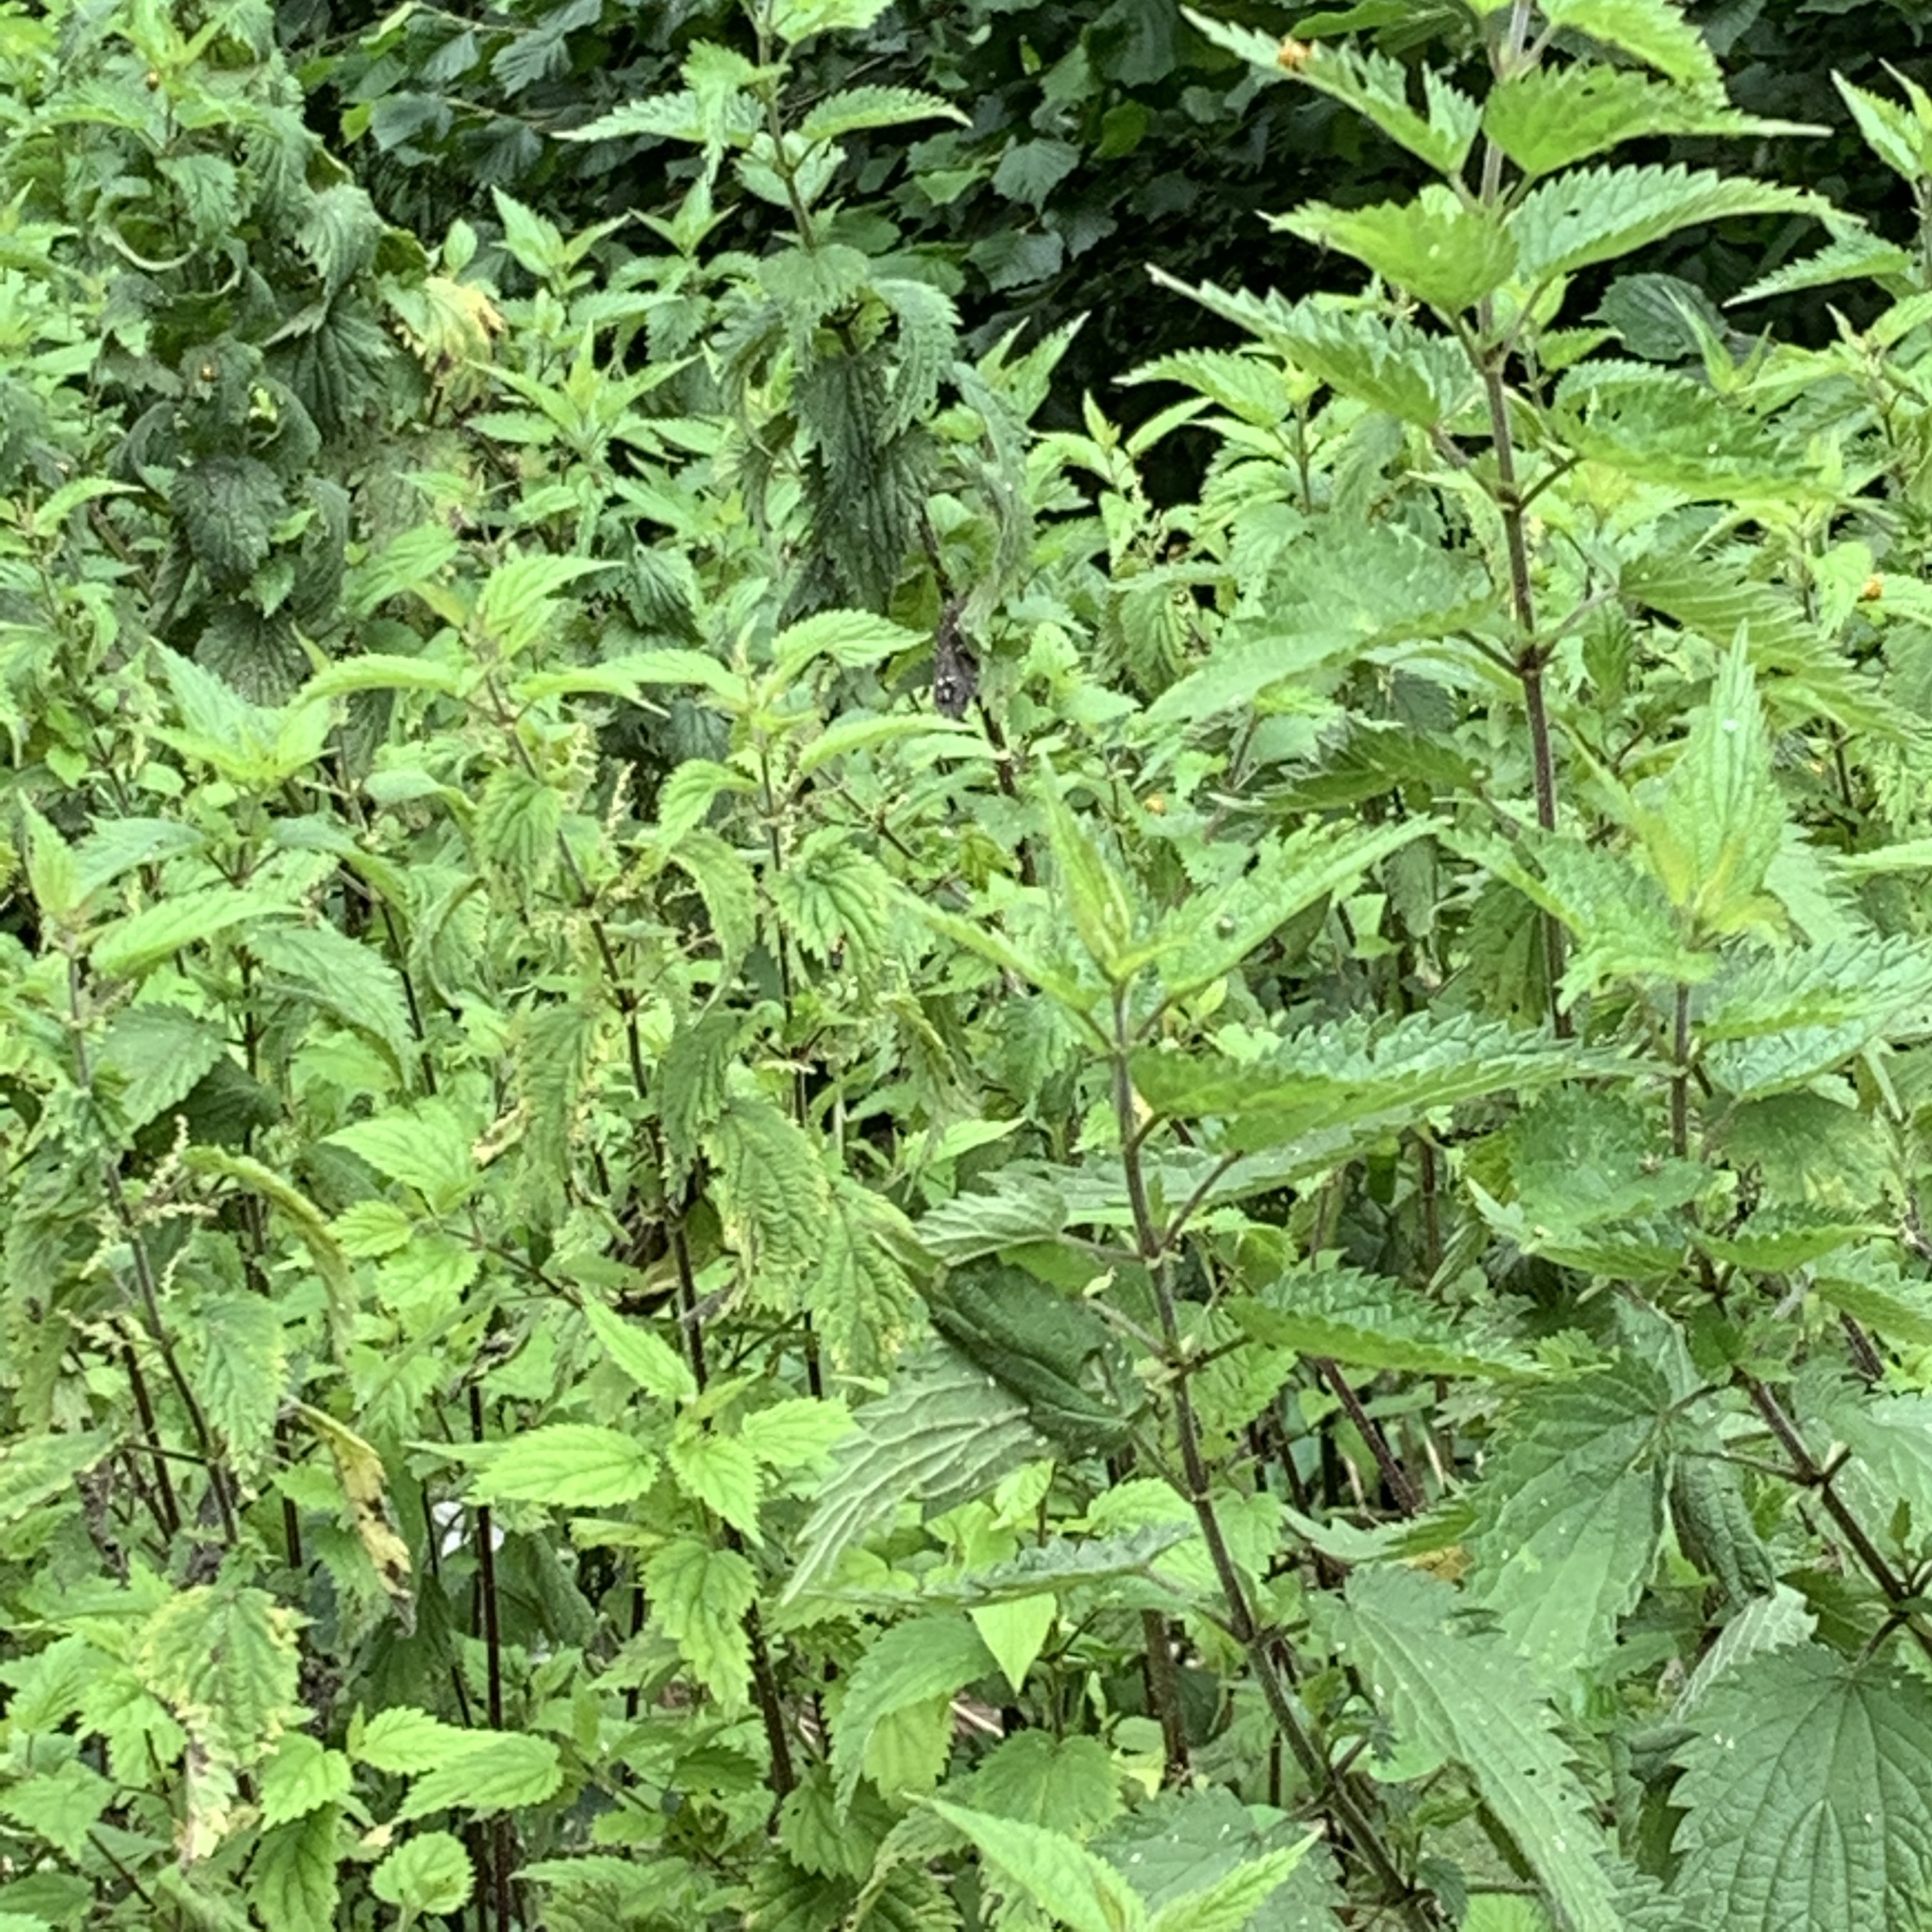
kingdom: Plantae
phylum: Tracheophyta
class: Magnoliopsida
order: Rosales
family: Urticaceae
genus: Urtica
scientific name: Urtica dioica
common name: Common nettle
